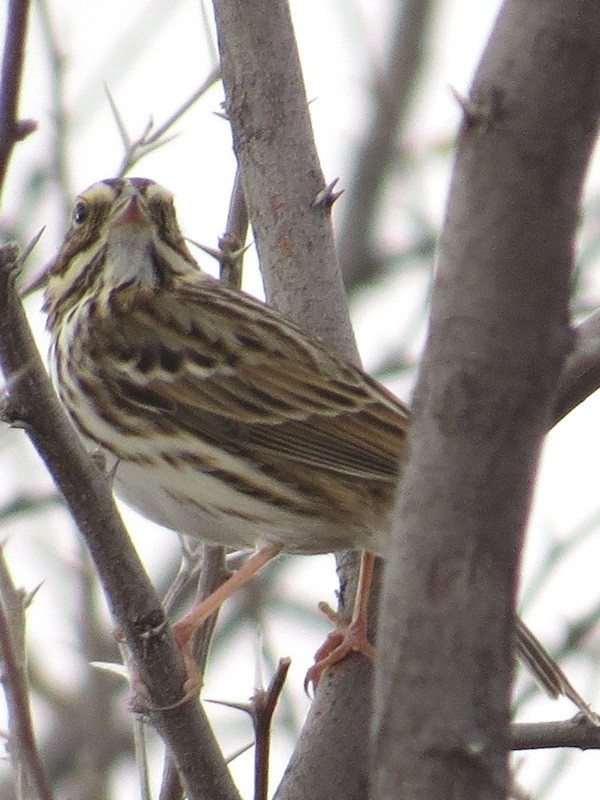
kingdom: Animalia
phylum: Chordata
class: Aves
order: Passeriformes
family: Passerellidae
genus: Passerculus
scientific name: Passerculus sandwichensis
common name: Savannah sparrow
